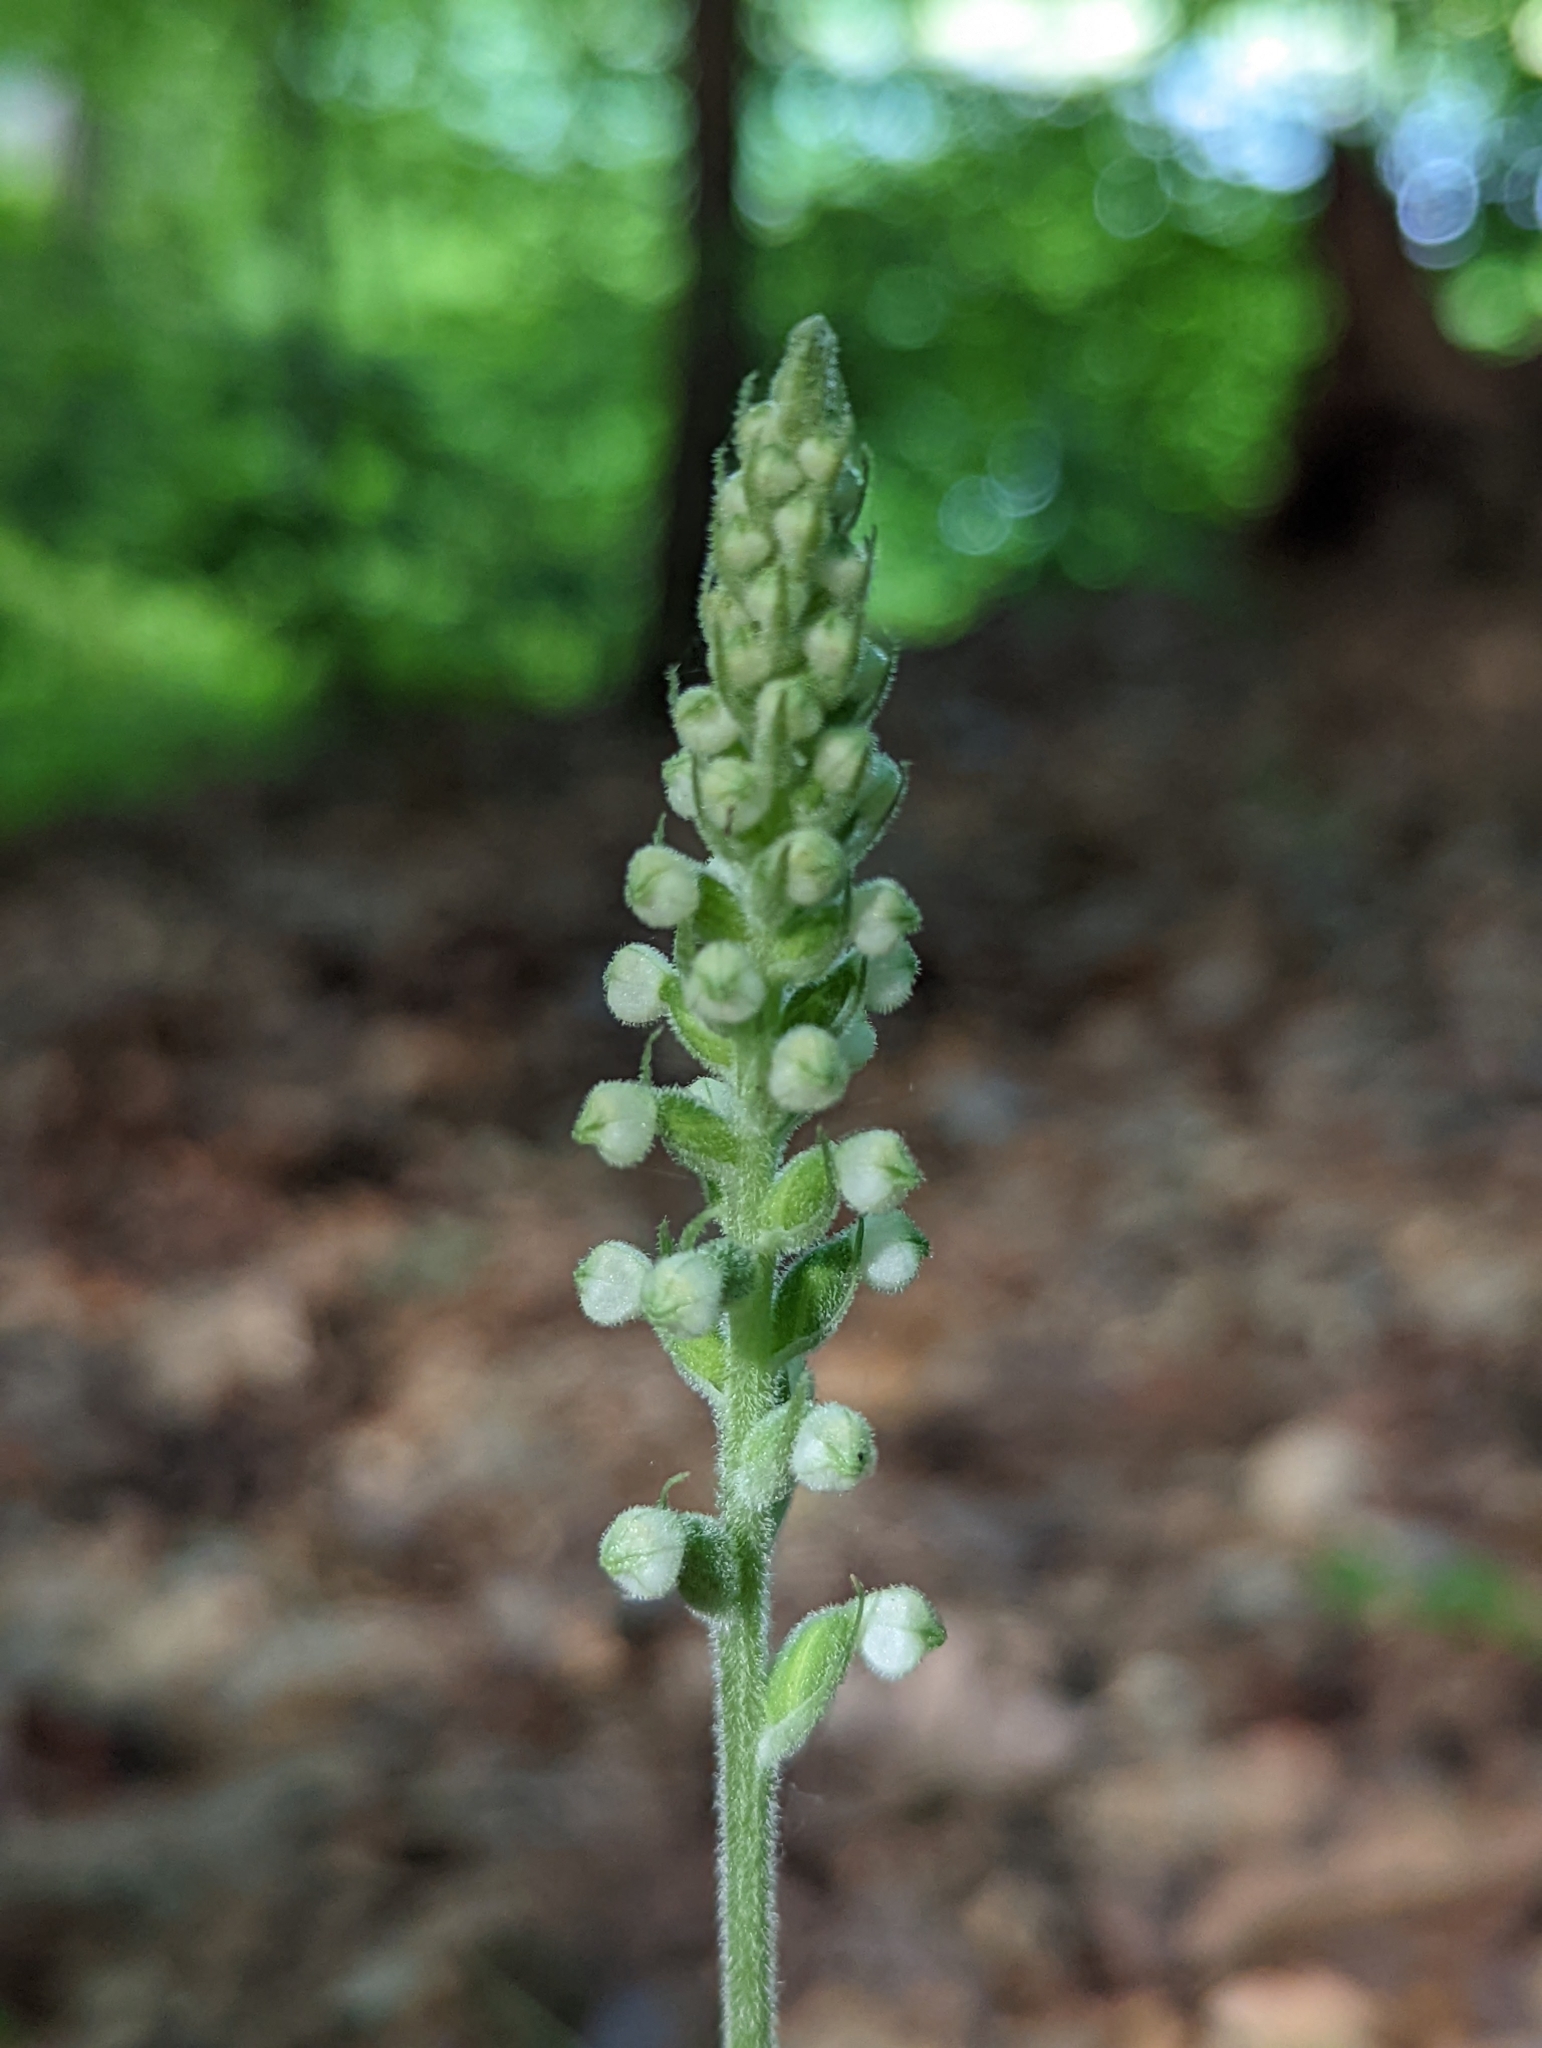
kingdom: Plantae
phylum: Tracheophyta
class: Liliopsida
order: Asparagales
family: Orchidaceae
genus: Goodyera
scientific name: Goodyera pubescens
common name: Downy rattlesnake-plantain
